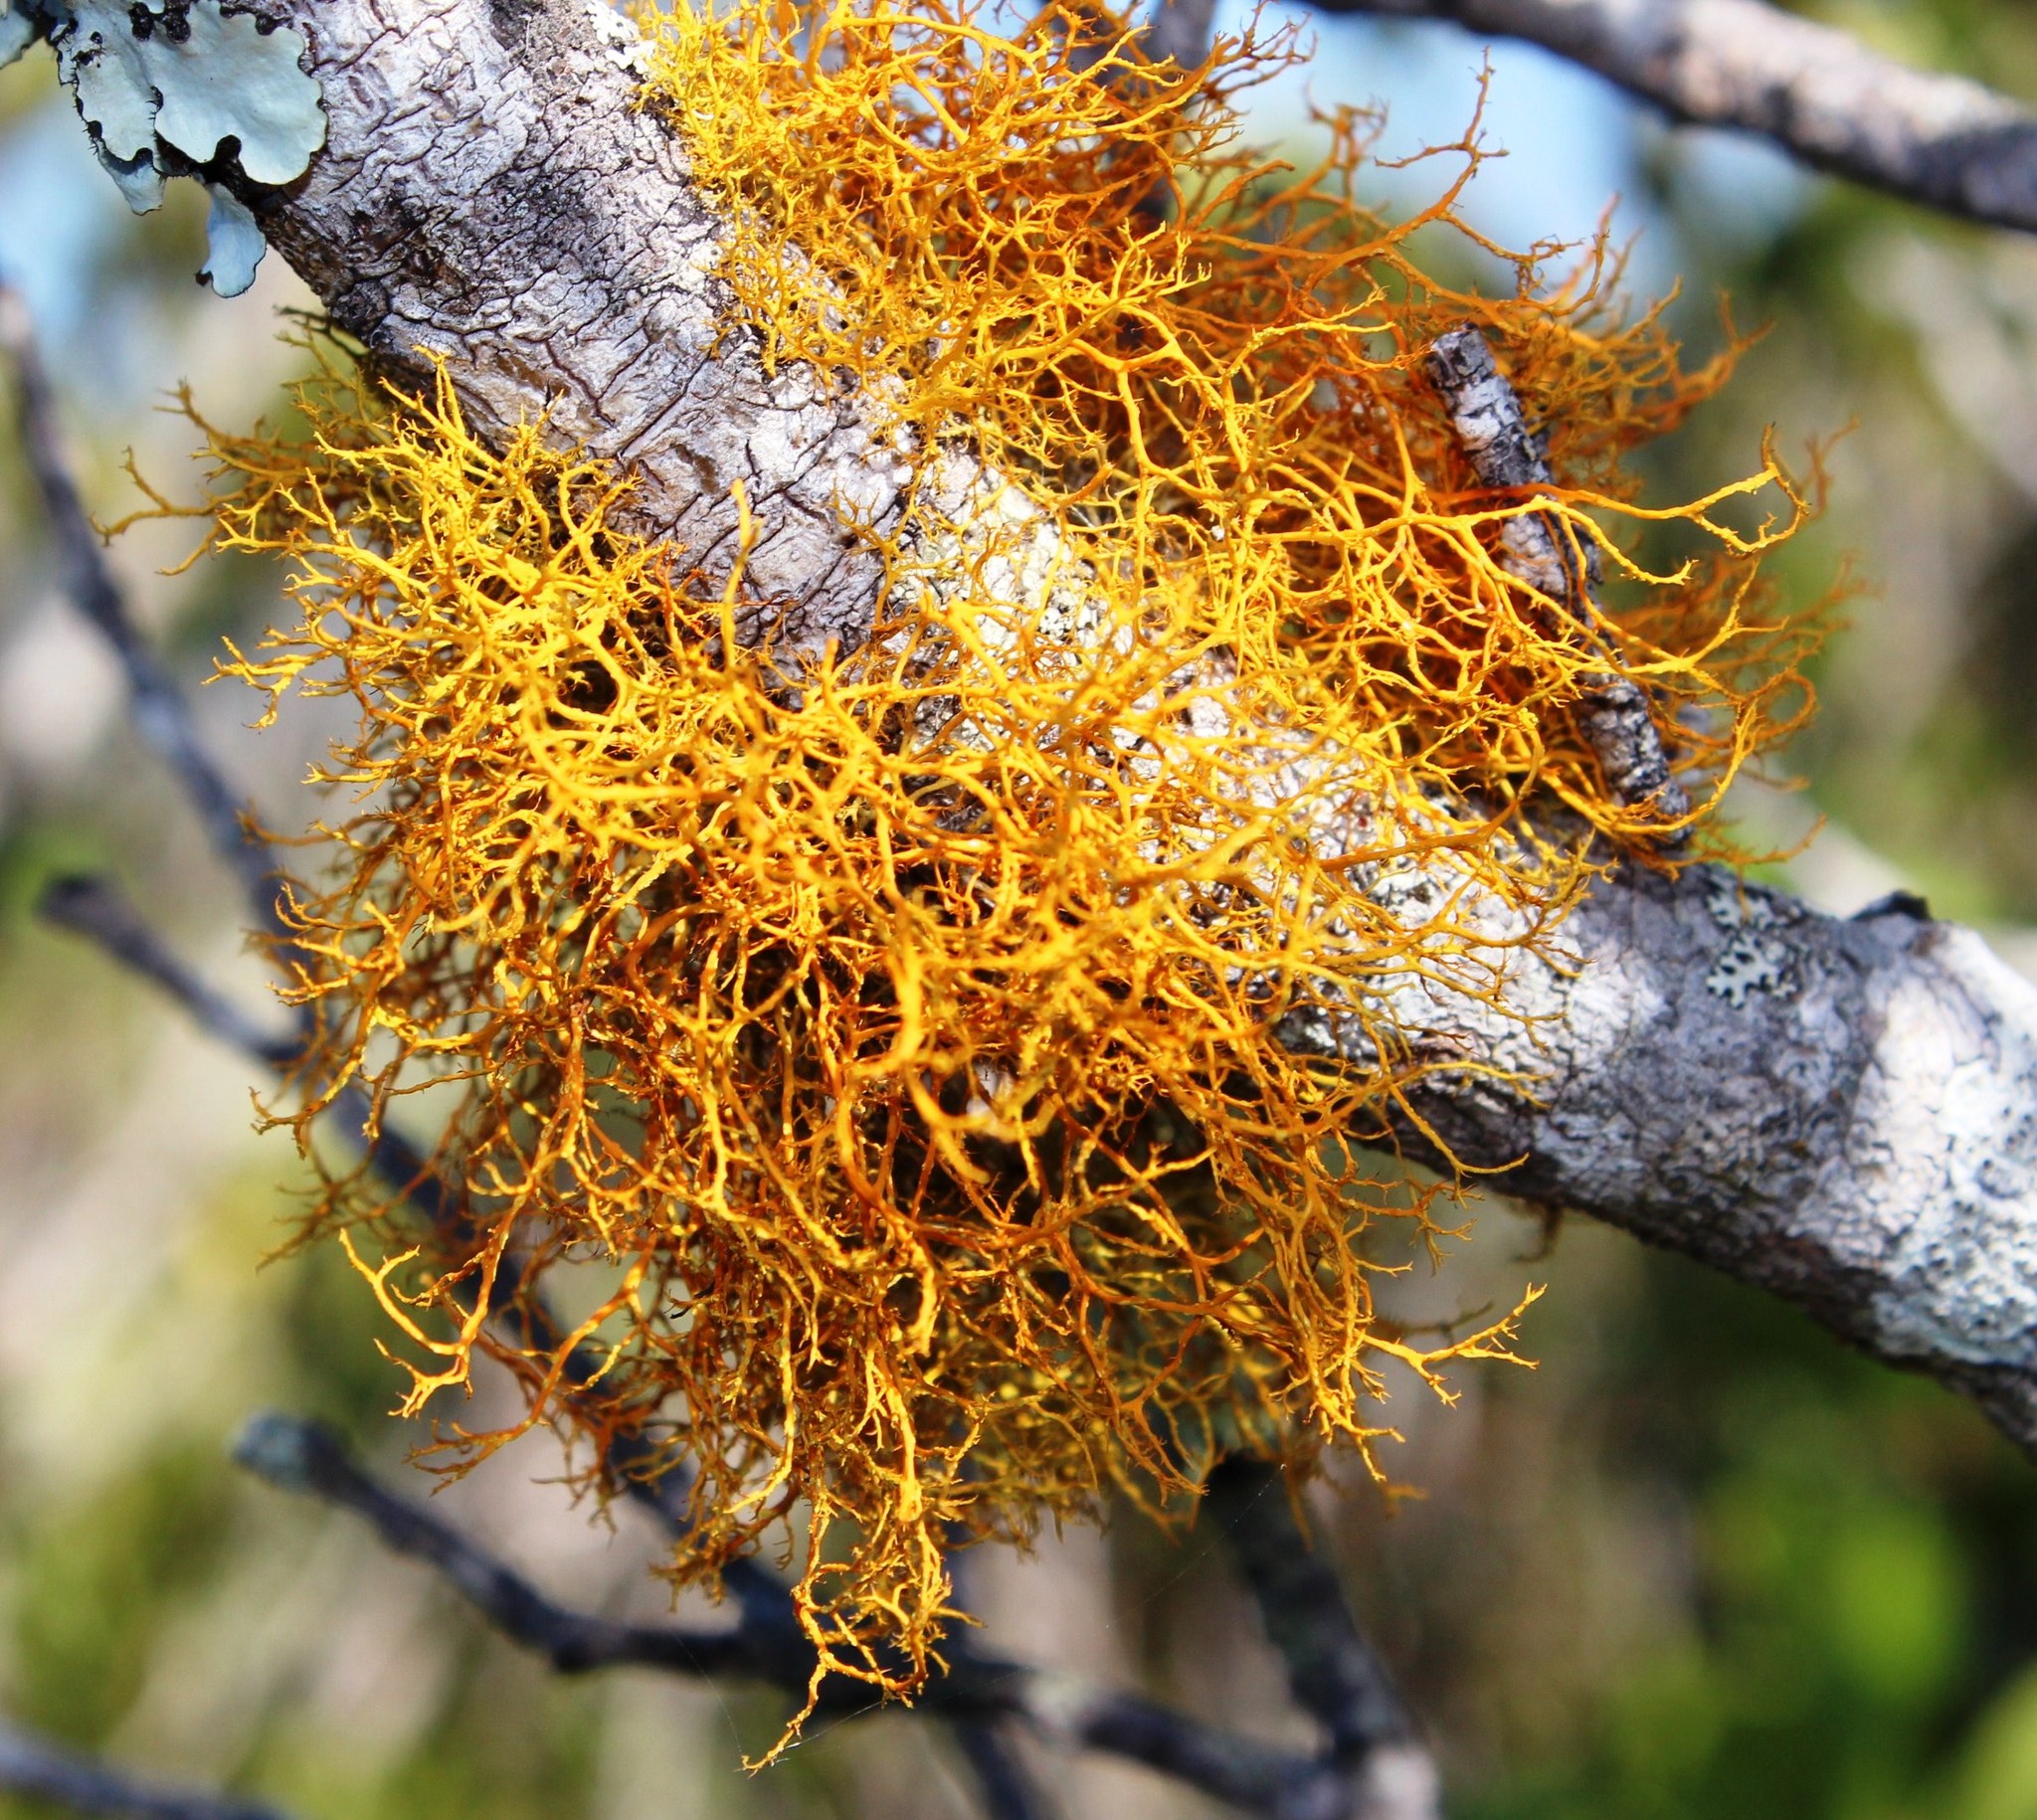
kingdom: Fungi
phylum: Ascomycota
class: Lecanoromycetes
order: Teloschistales
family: Teloschistaceae
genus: Teloschistes
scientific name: Teloschistes flavicans
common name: Golden hair-lichen
